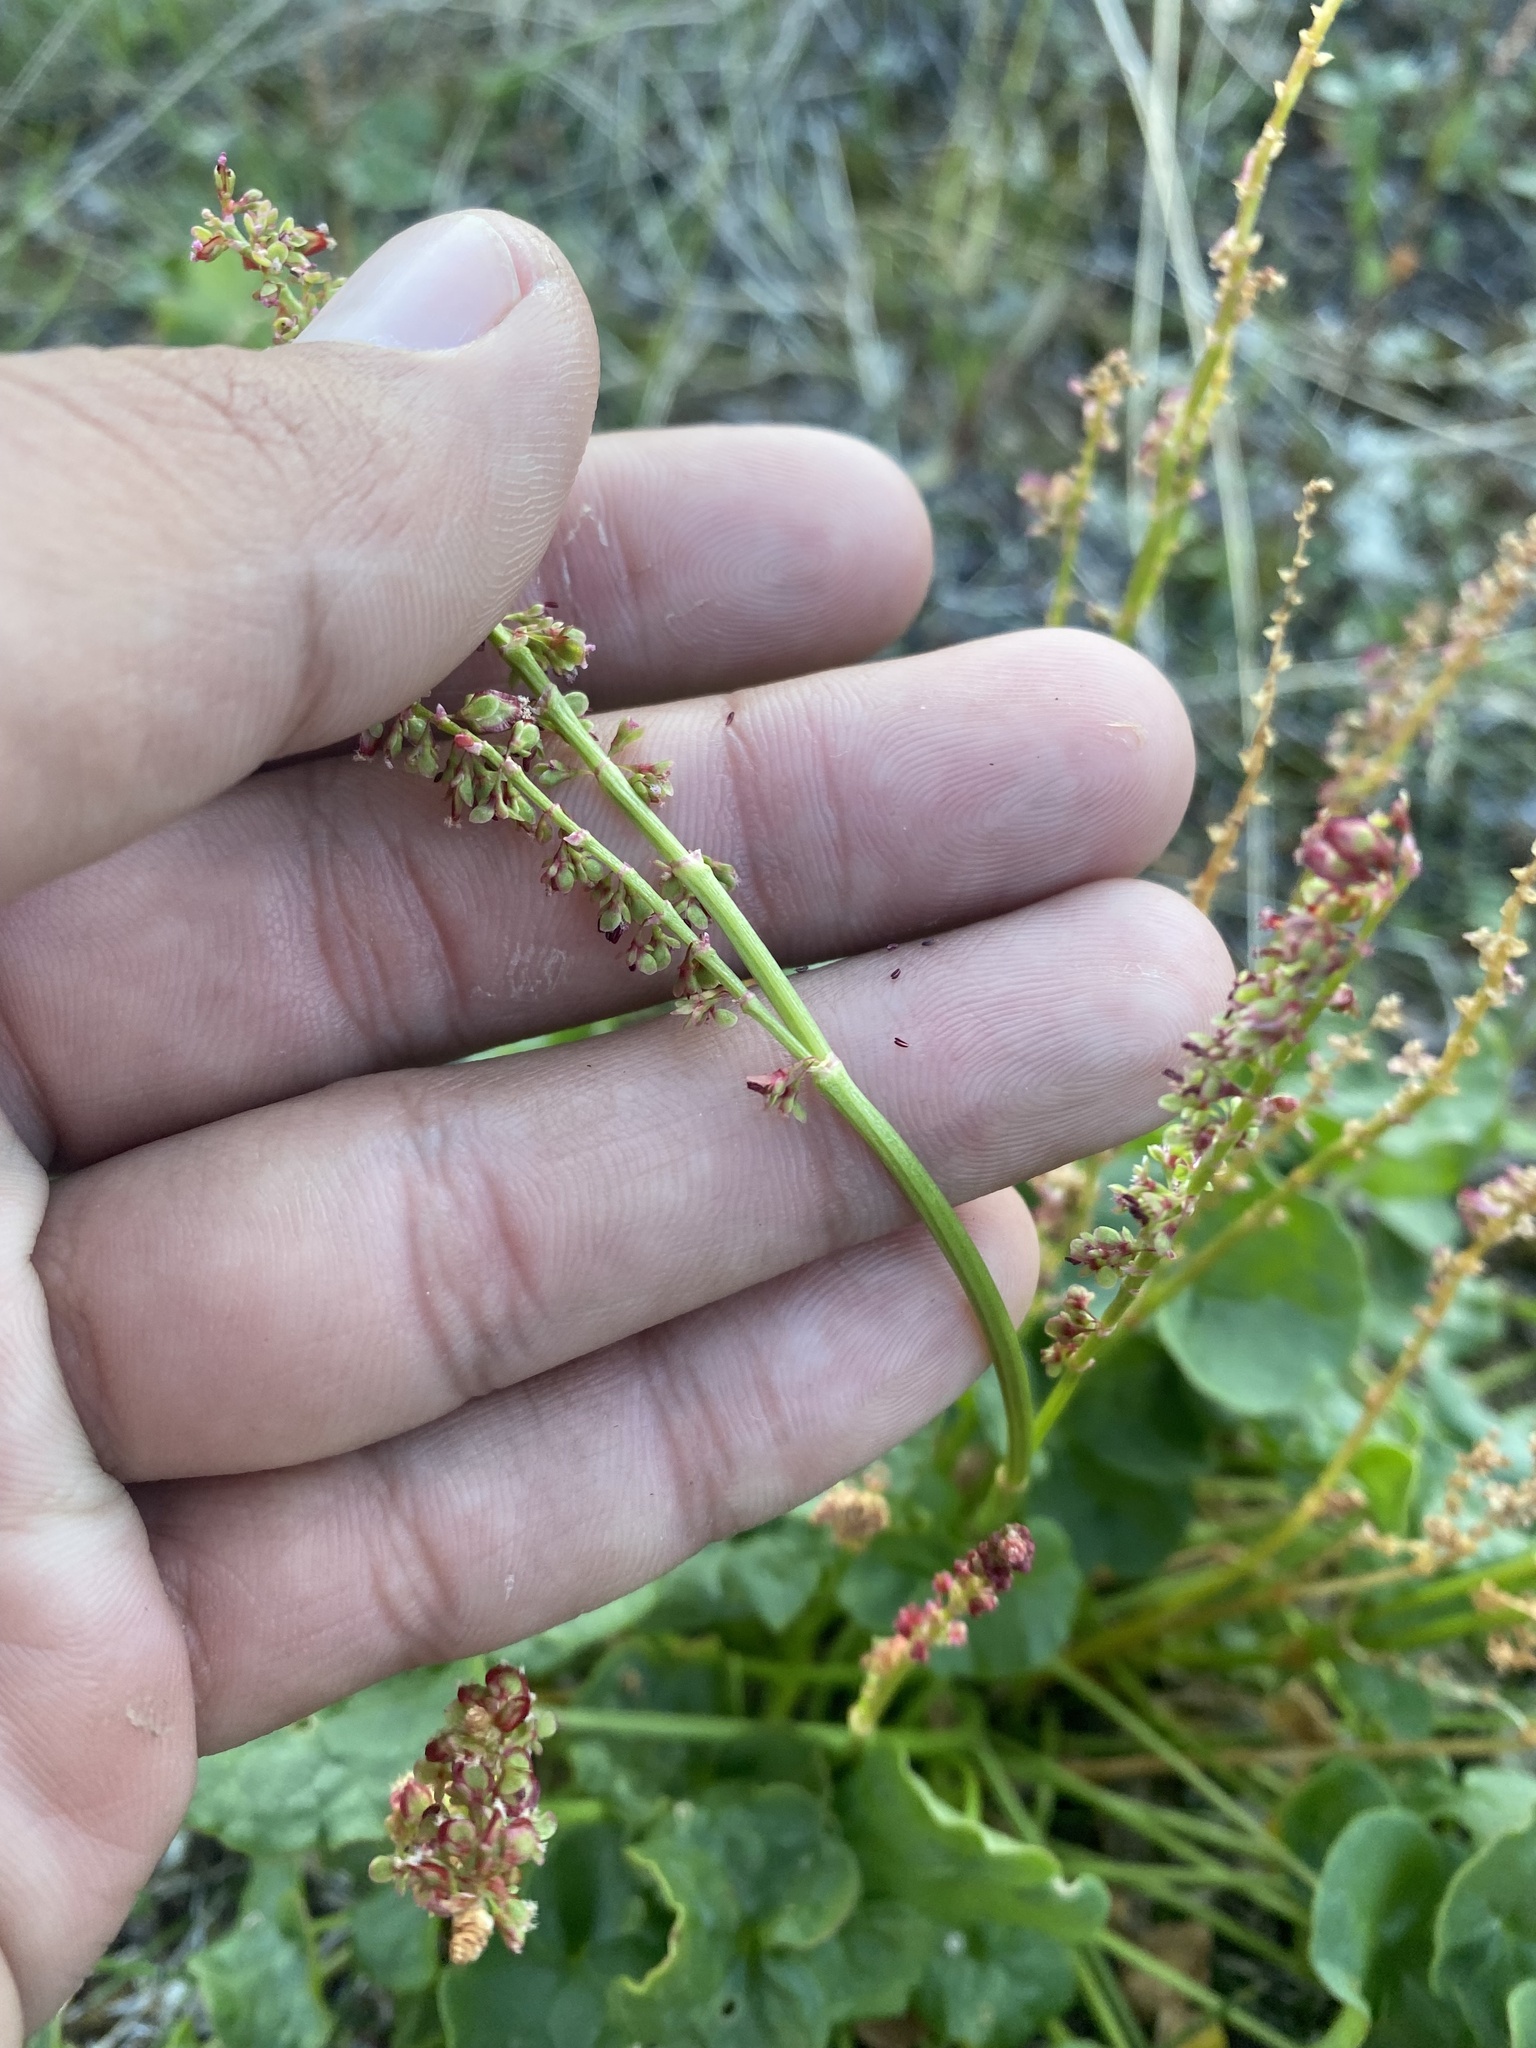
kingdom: Plantae
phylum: Tracheophyta
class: Magnoliopsida
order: Caryophyllales
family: Polygonaceae
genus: Oxyria
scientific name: Oxyria digyna
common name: Alpine mountain-sorrel
